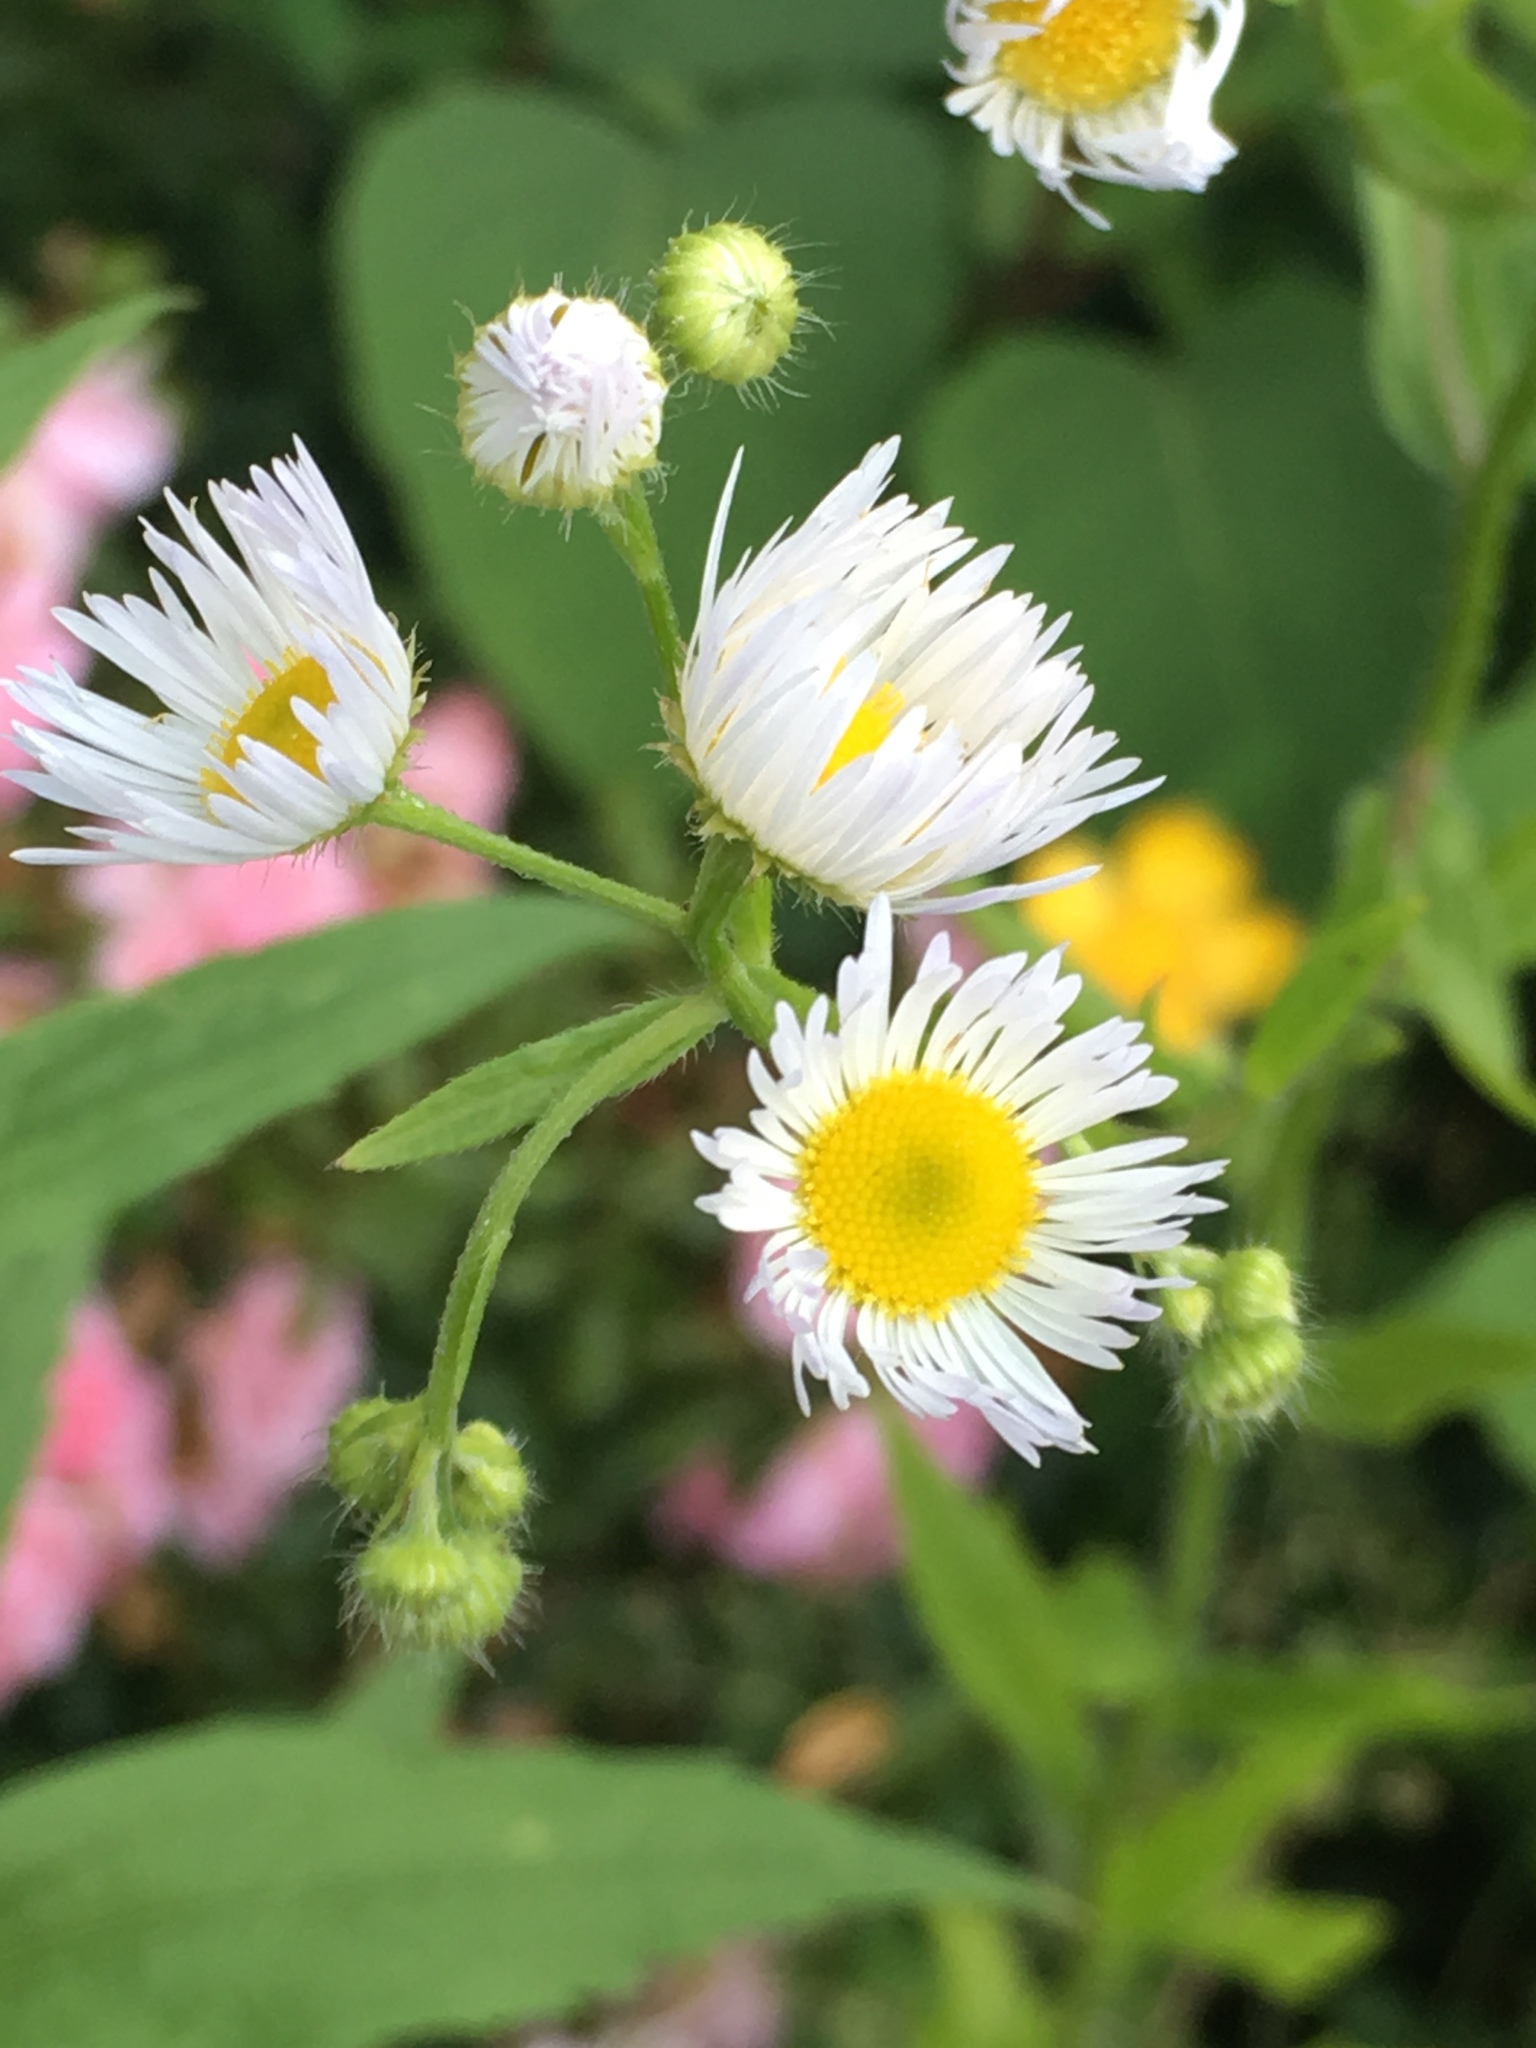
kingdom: Plantae
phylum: Tracheophyta
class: Magnoliopsida
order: Asterales
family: Asteraceae
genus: Erigeron
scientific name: Erigeron annuus
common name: Tall fleabane
